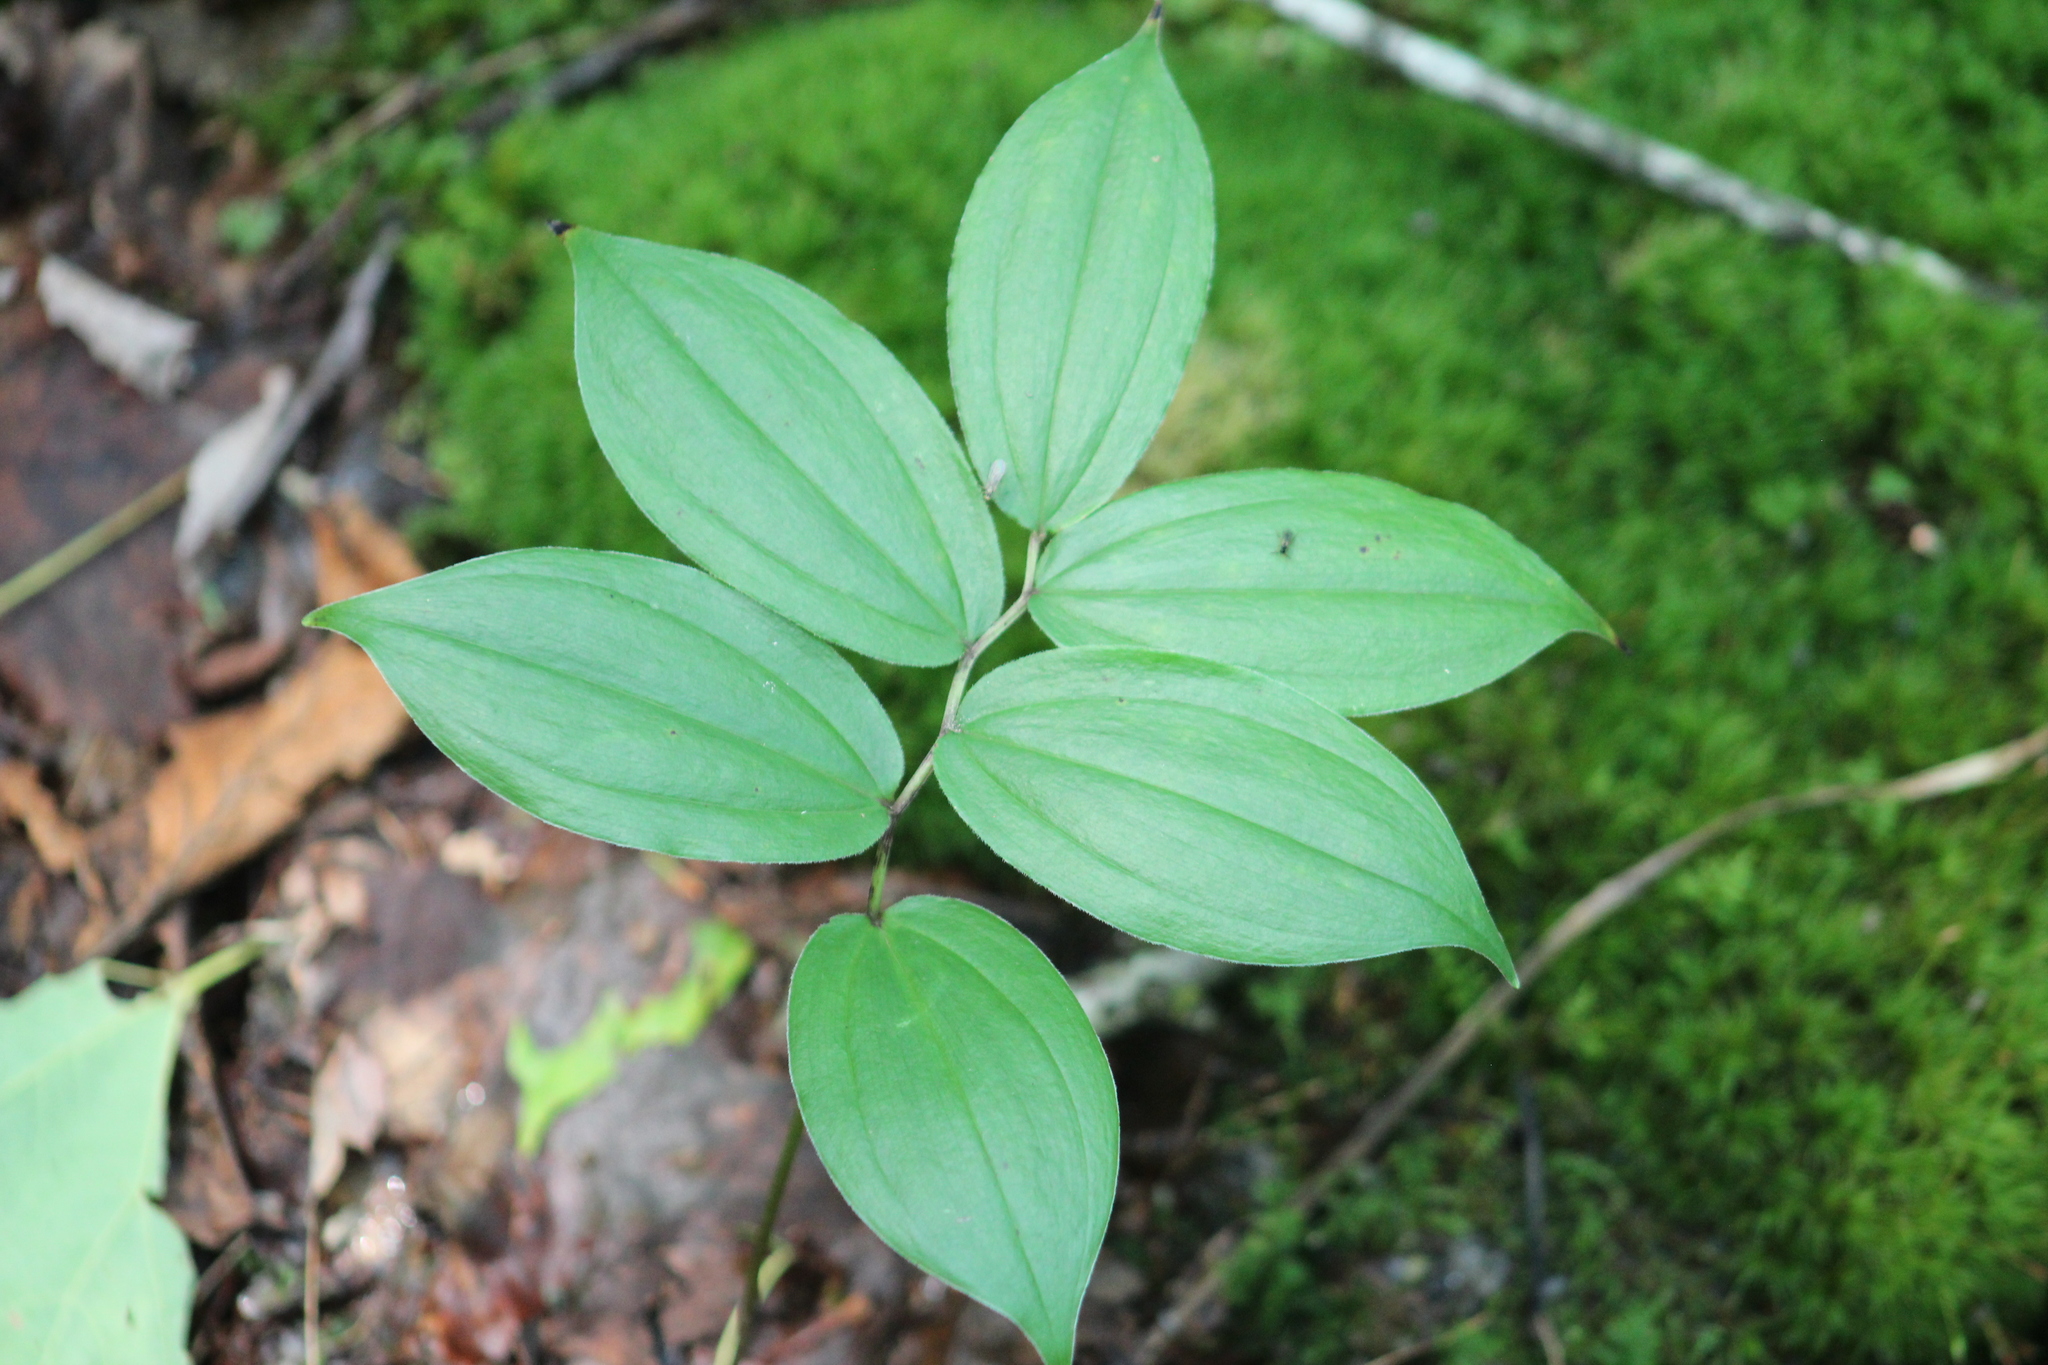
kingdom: Plantae
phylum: Tracheophyta
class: Liliopsida
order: Asparagales
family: Asparagaceae
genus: Maianthemum
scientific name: Maianthemum racemosum
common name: False spikenard
